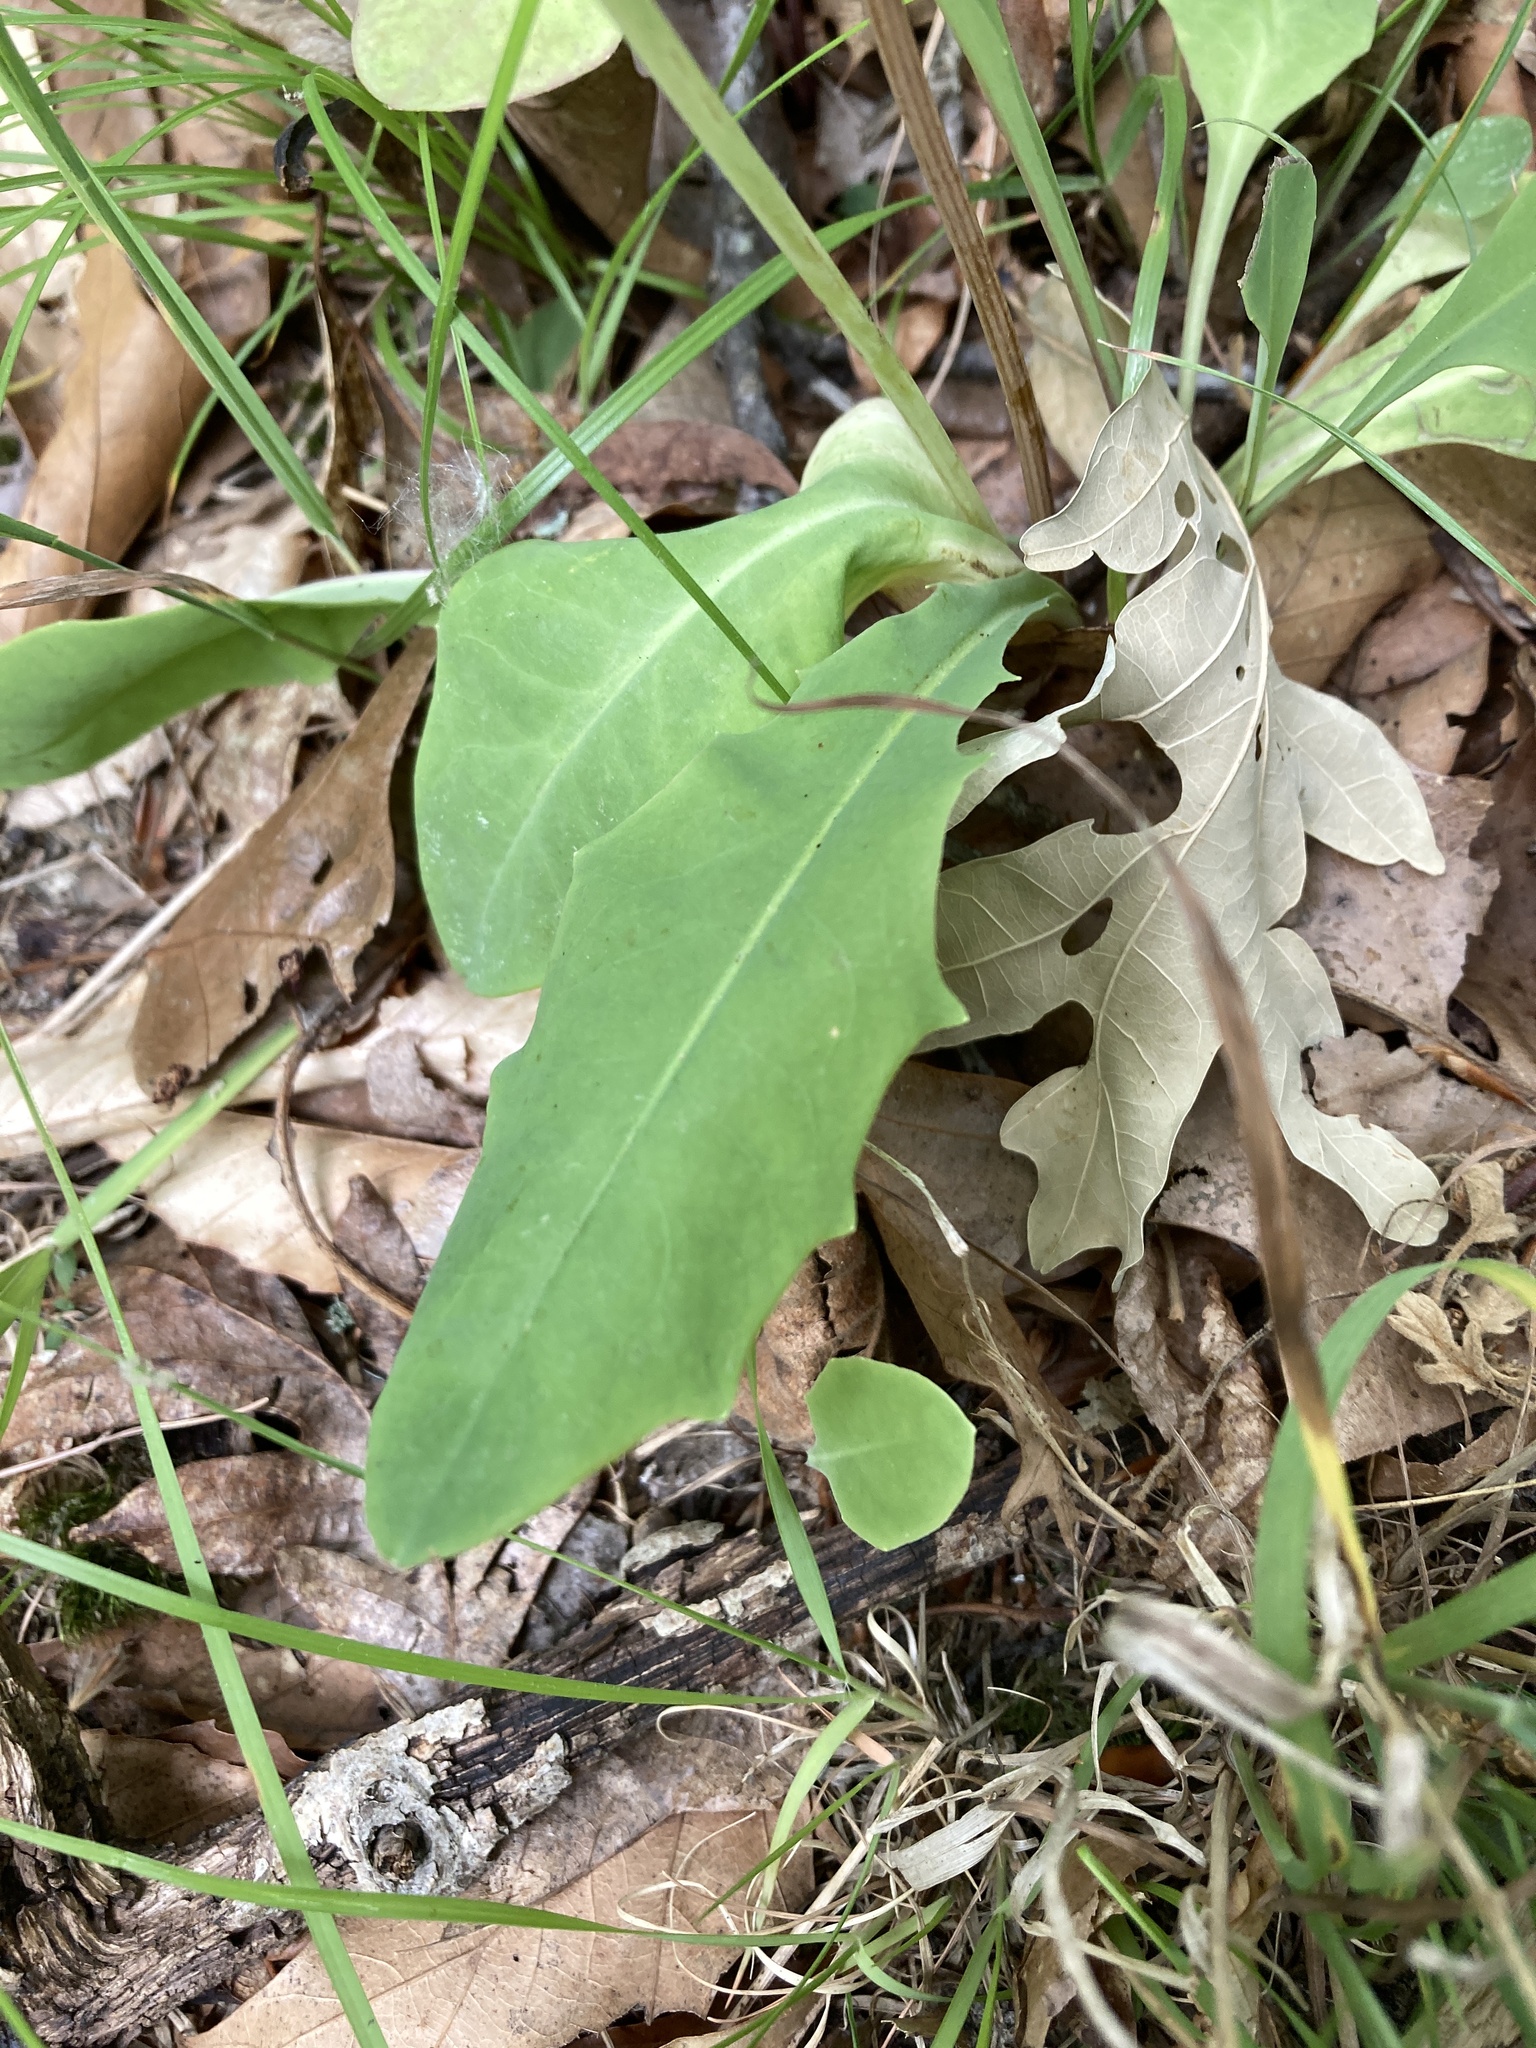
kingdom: Plantae
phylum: Tracheophyta
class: Magnoliopsida
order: Asterales
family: Asteraceae
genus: Krigia
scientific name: Krigia biflora
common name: Orange dwarf-dandelion
